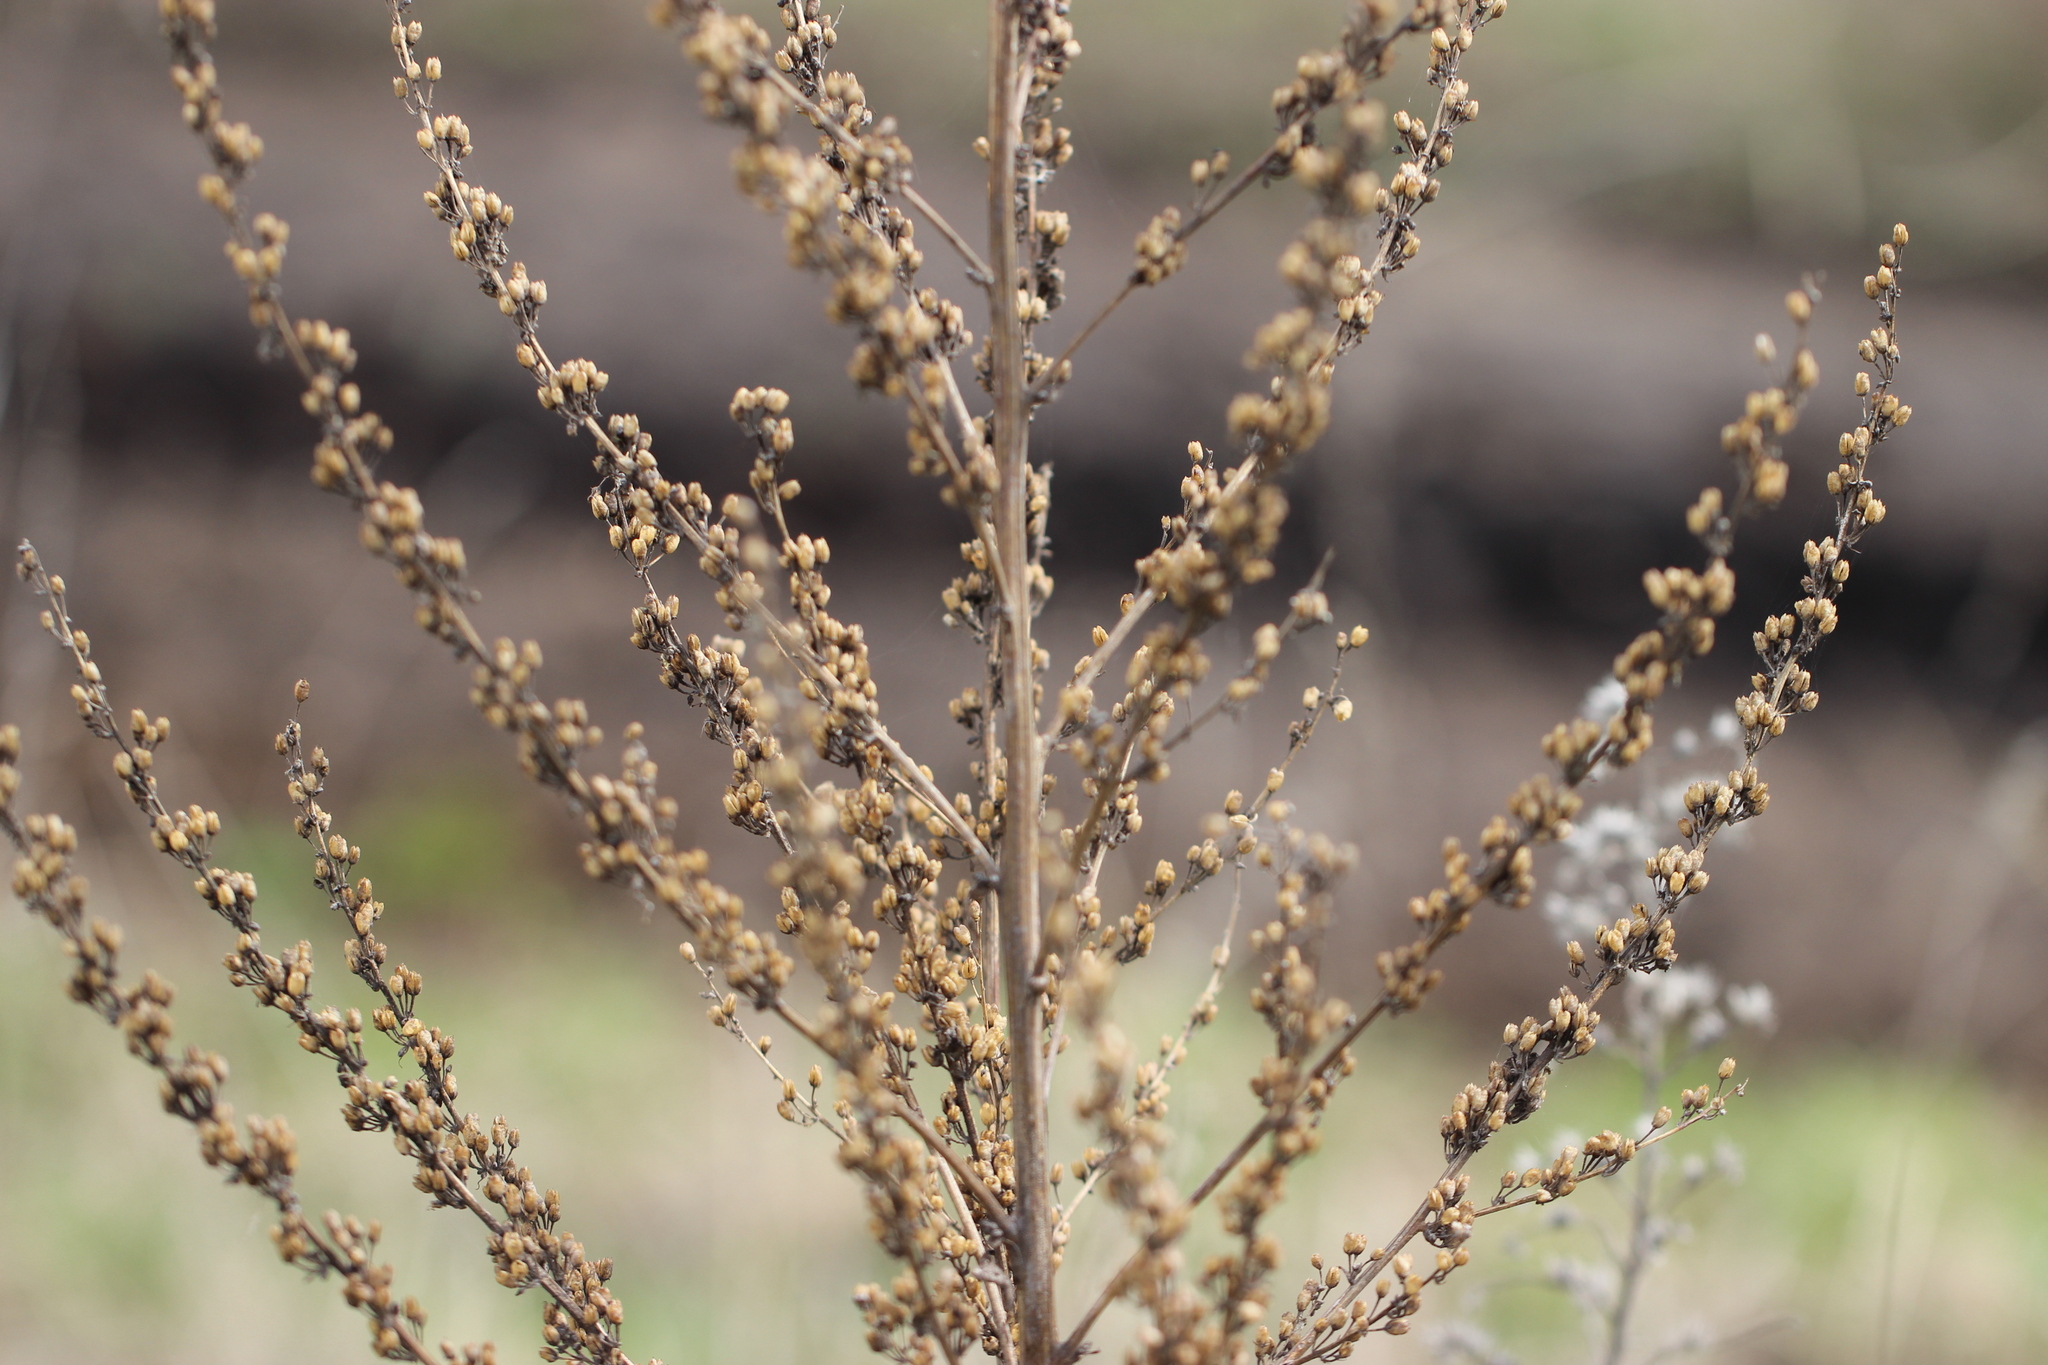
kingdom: Plantae
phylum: Tracheophyta
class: Magnoliopsida
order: Lamiales
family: Scrophulariaceae
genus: Verbascum
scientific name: Verbascum lychnitis
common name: White mullein
